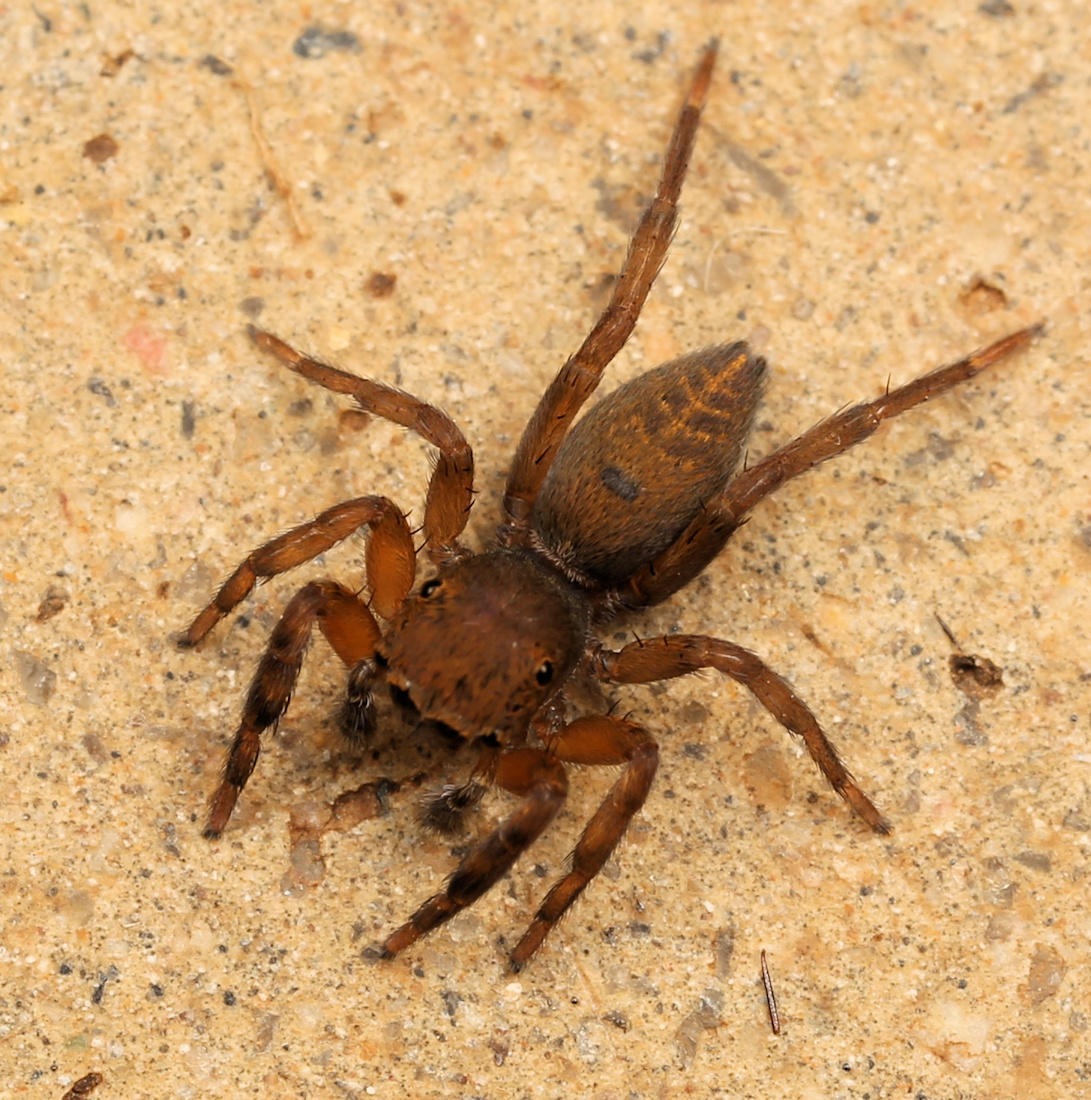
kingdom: Animalia
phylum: Arthropoda
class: Arachnida
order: Araneae
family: Salticidae
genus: Cyrba
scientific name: Cyrba lineata
